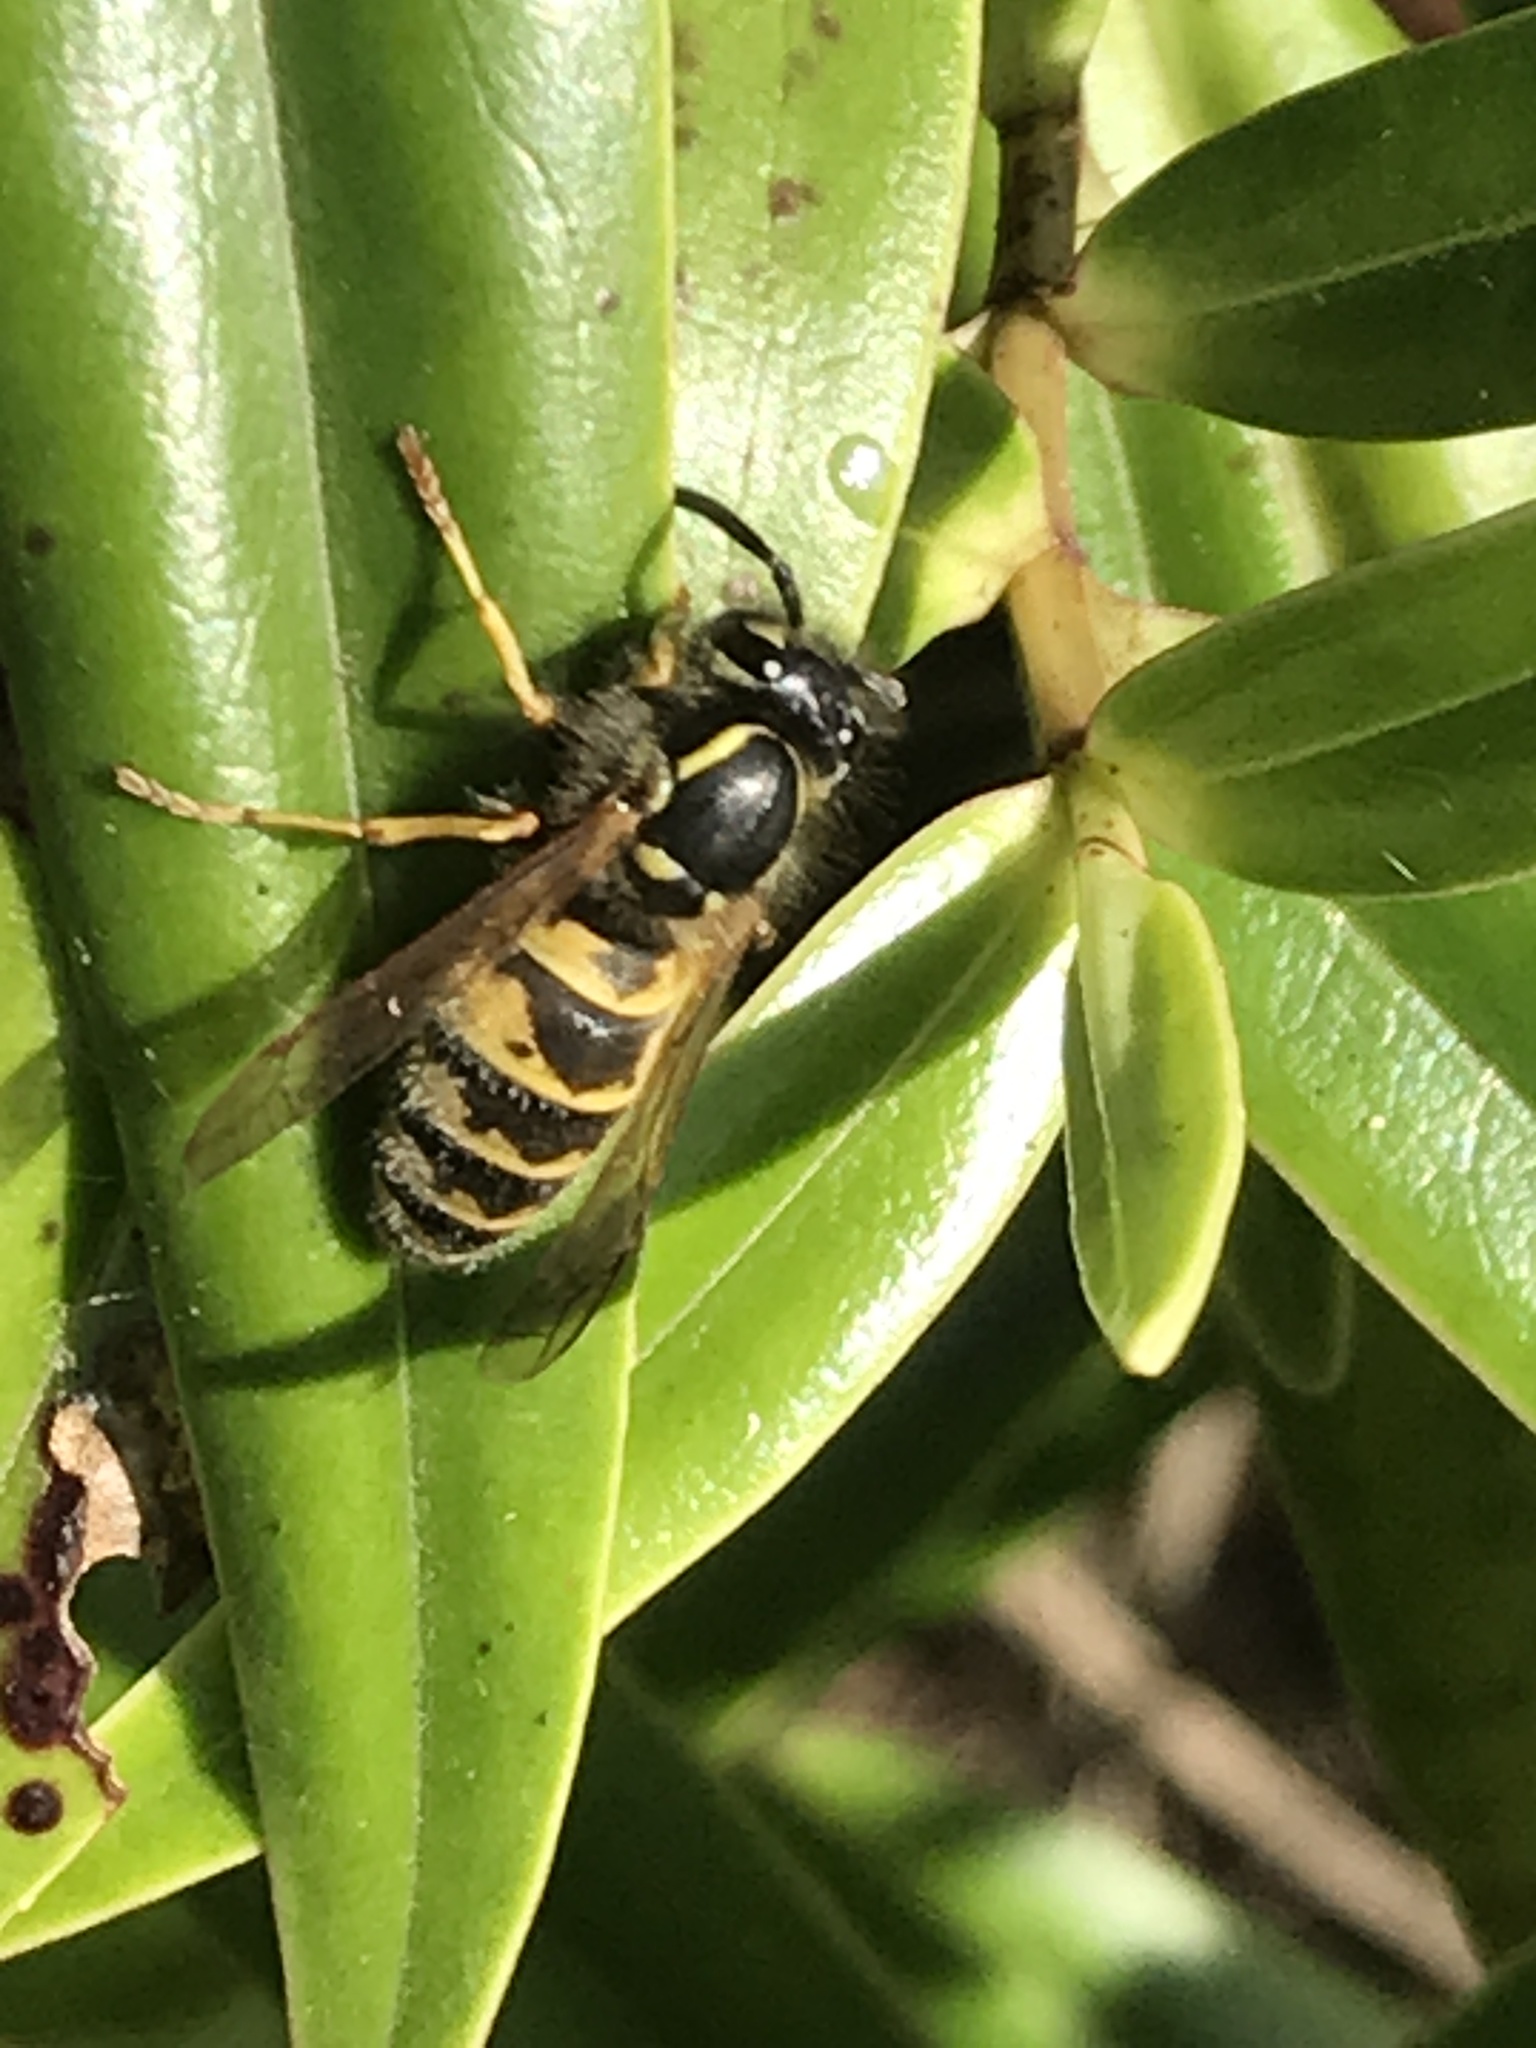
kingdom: Animalia
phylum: Arthropoda
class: Insecta
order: Hymenoptera
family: Vespidae
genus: Vespula
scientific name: Vespula vulgaris
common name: Common wasp
